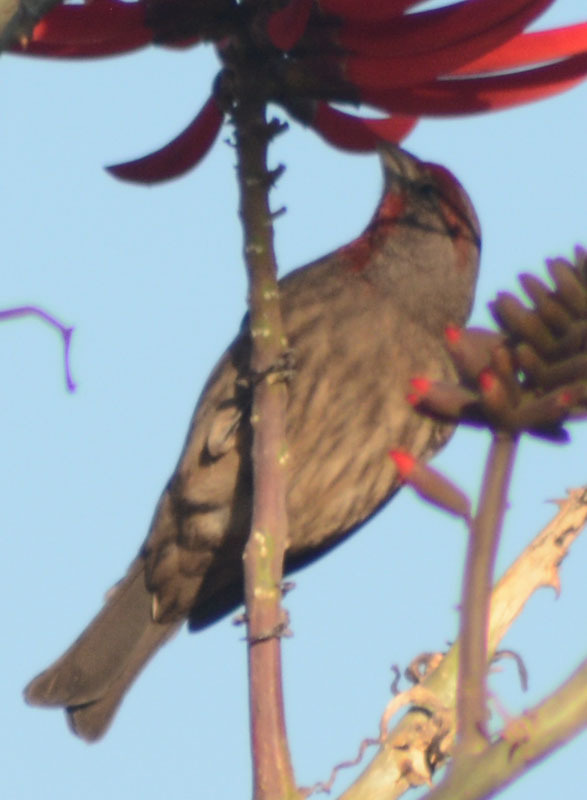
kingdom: Animalia
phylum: Chordata
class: Aves
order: Passeriformes
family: Fringillidae
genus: Haemorhous
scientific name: Haemorhous mexicanus
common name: House finch
